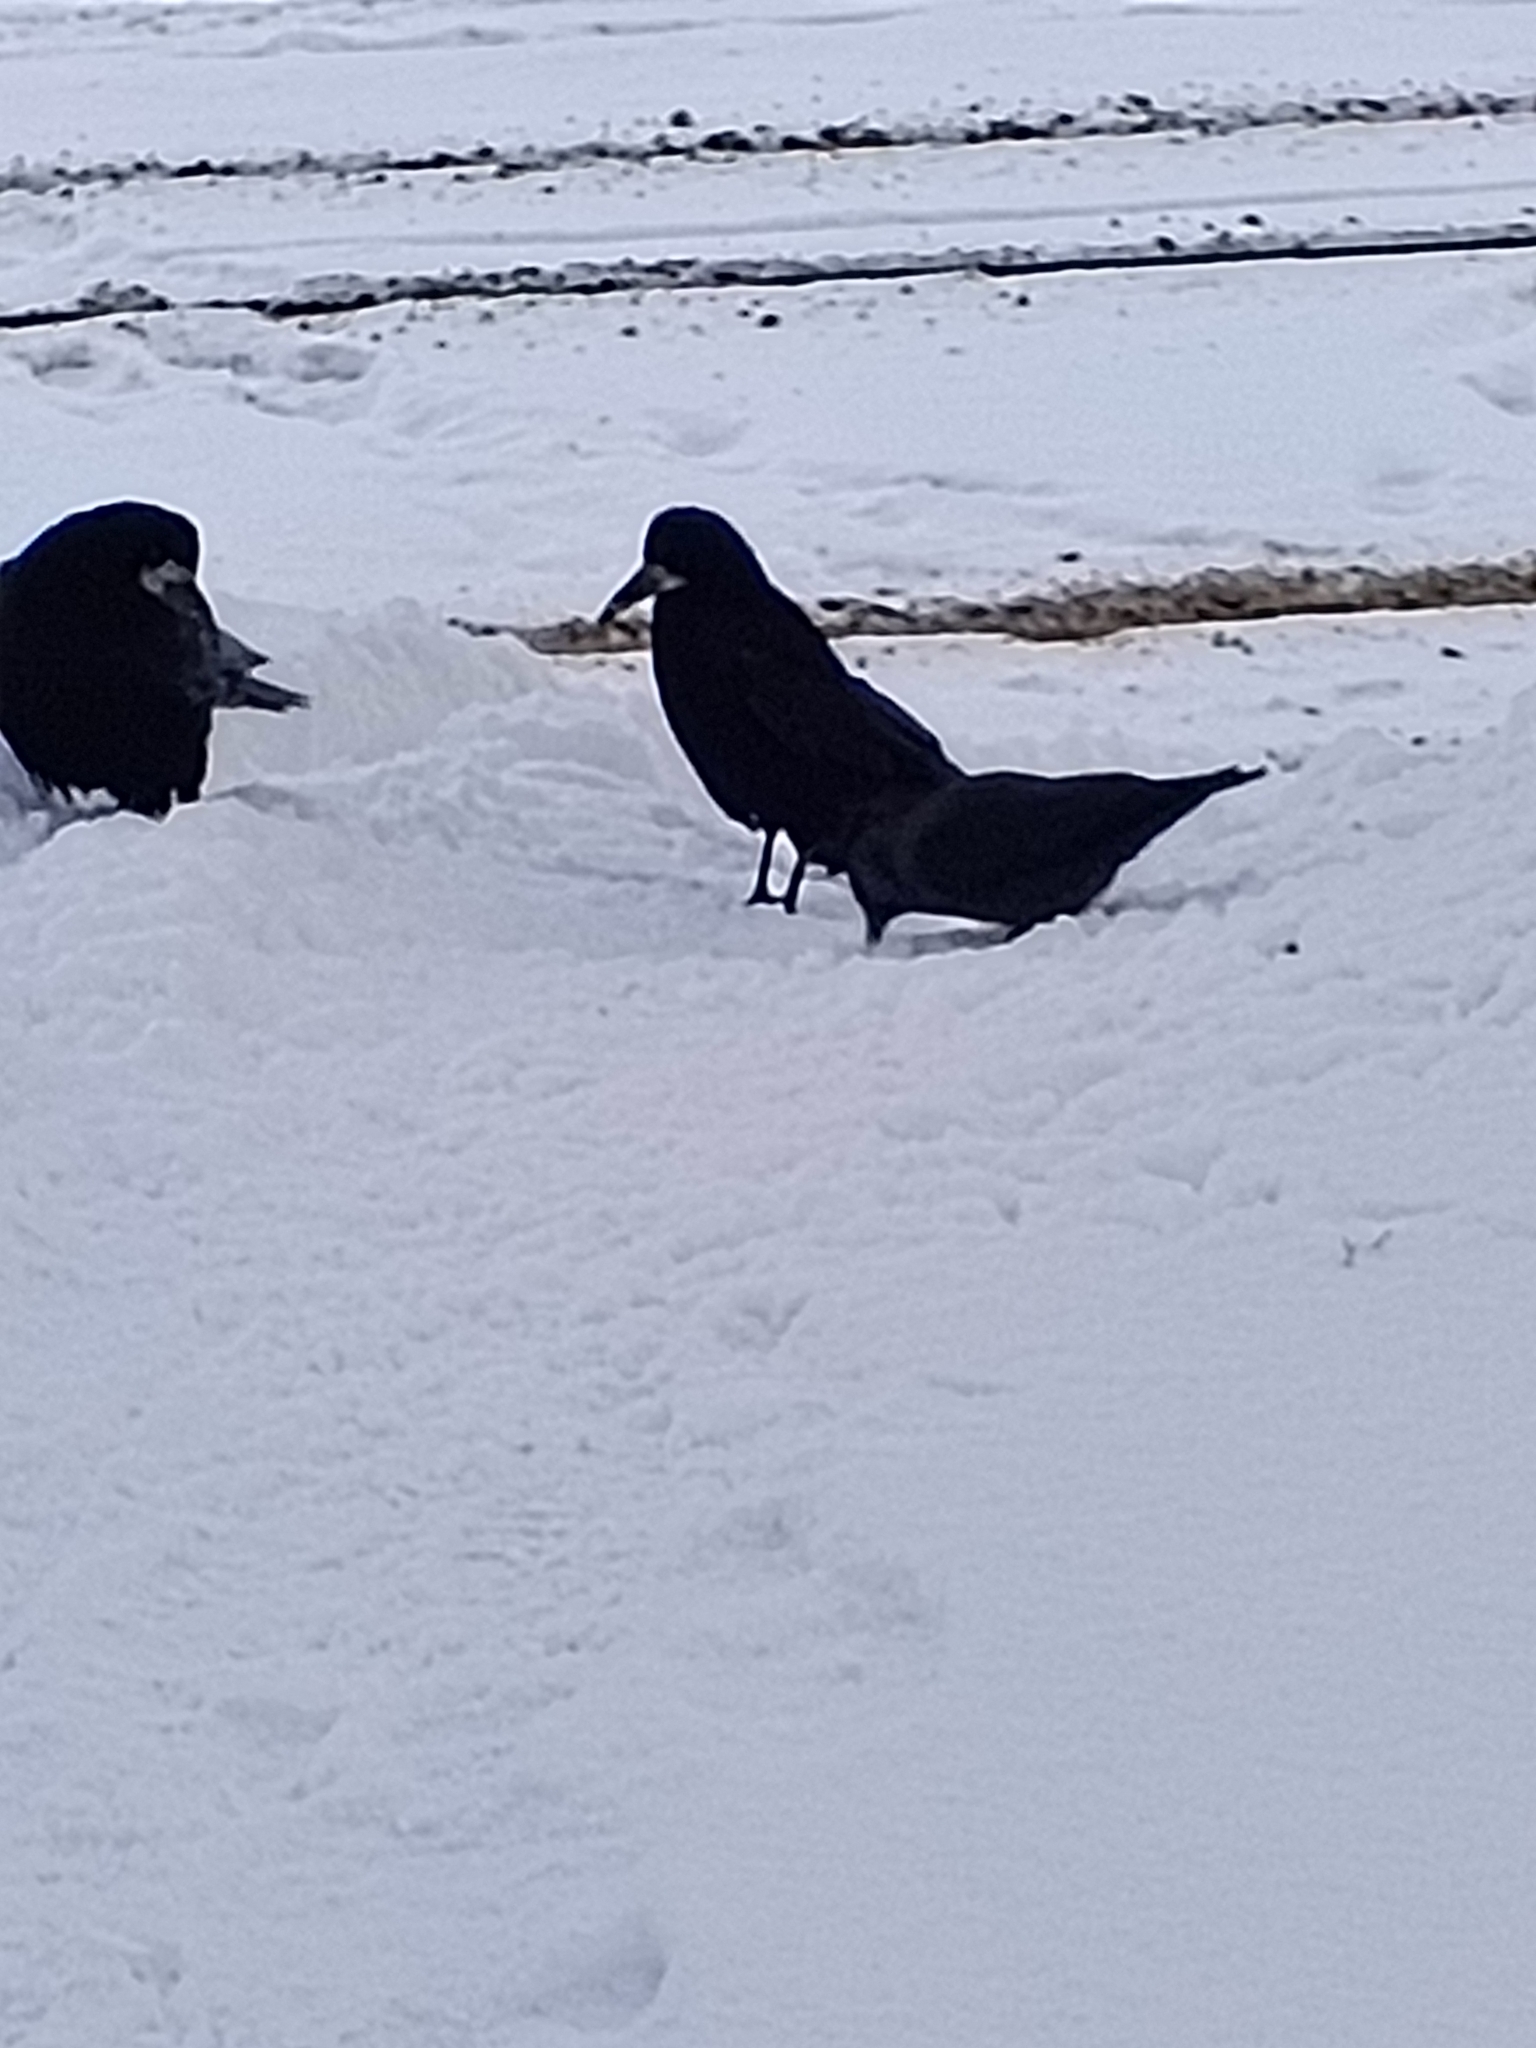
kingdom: Animalia
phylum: Chordata
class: Aves
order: Passeriformes
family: Corvidae
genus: Coloeus
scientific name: Coloeus monedula
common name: Western jackdaw
